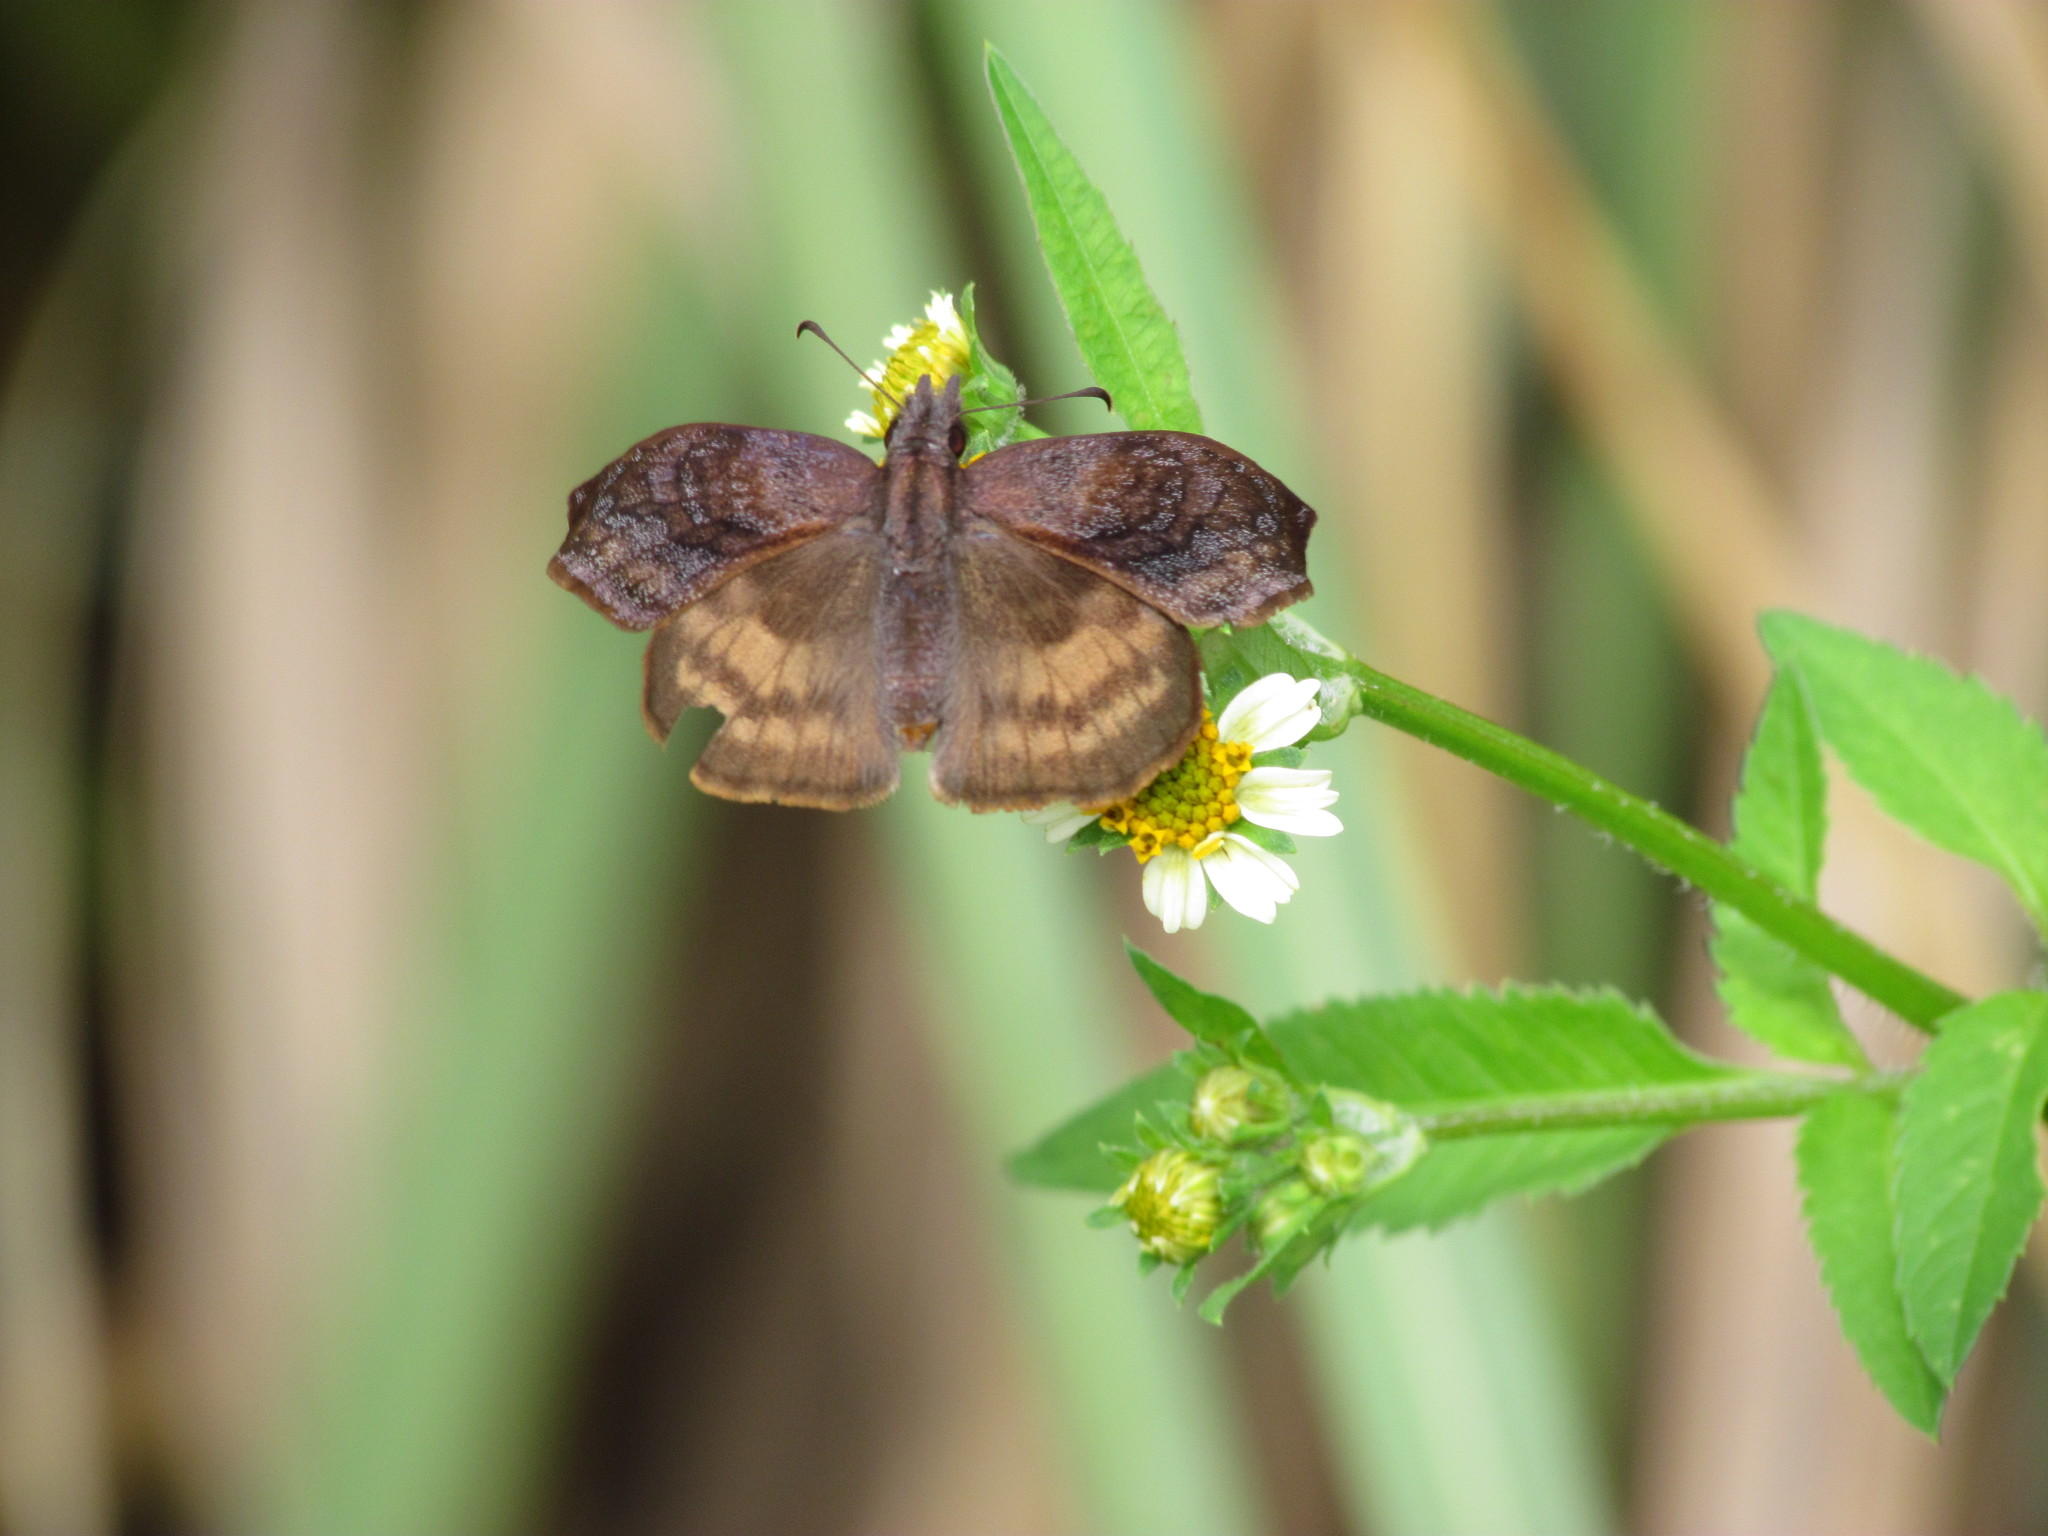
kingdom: Animalia
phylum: Arthropoda
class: Insecta
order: Lepidoptera
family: Hesperiidae
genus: Theagenes
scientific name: Theagenes dichrous
